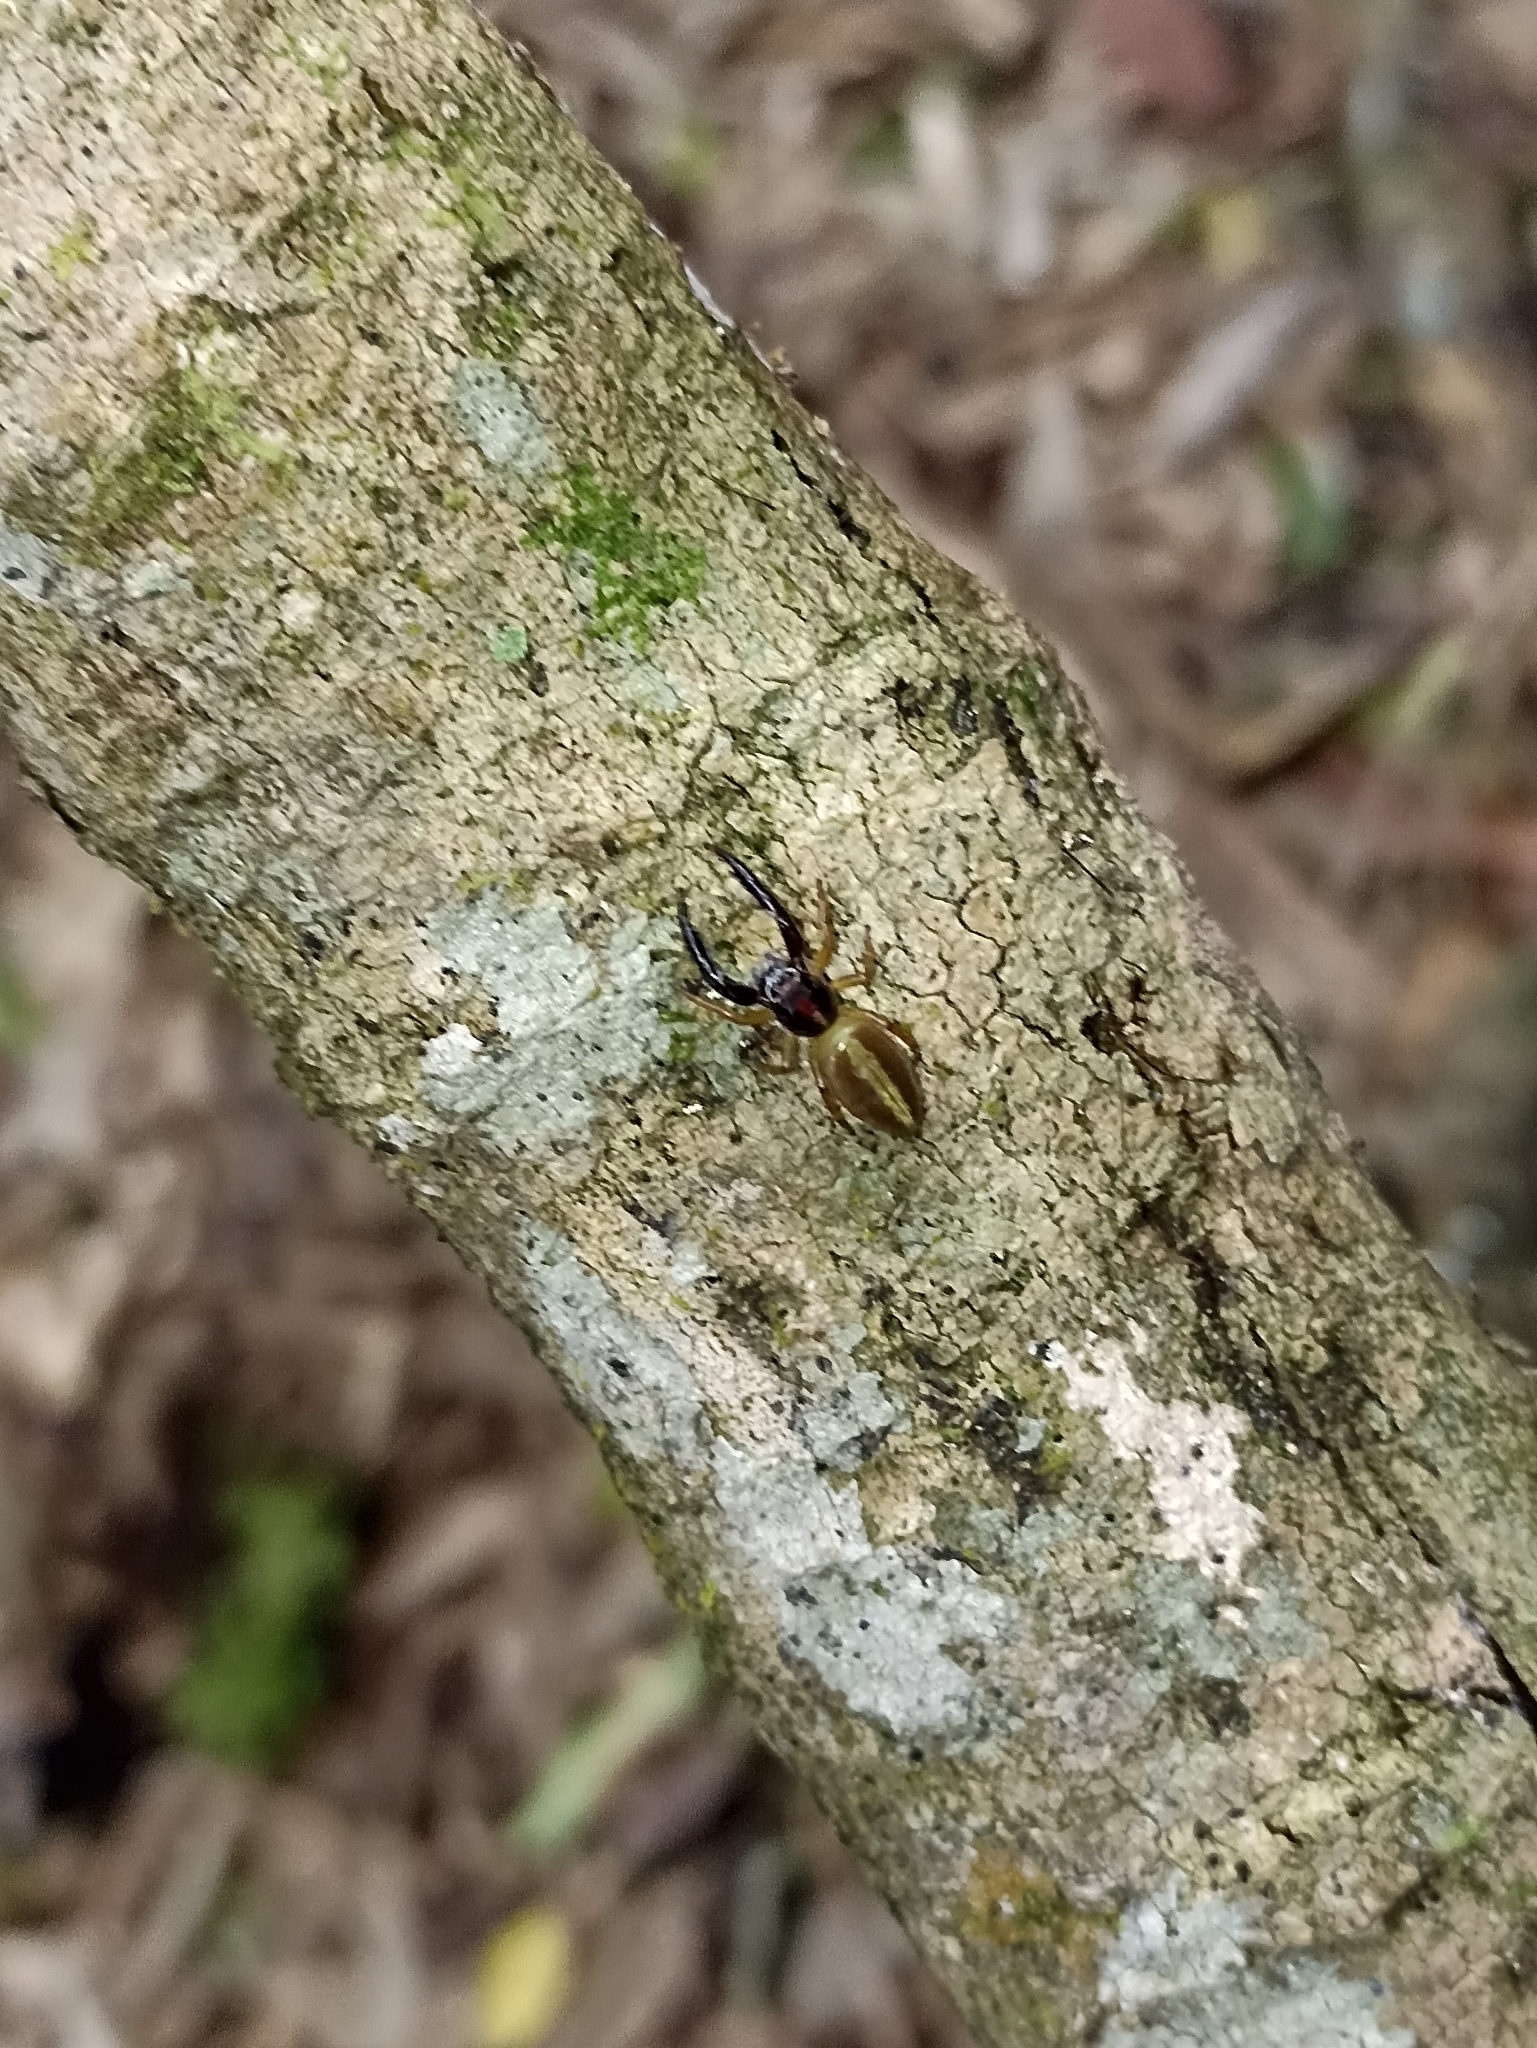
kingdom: Animalia
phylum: Arthropoda
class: Arachnida
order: Araneae
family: Salticidae
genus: Trite
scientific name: Trite planiceps
